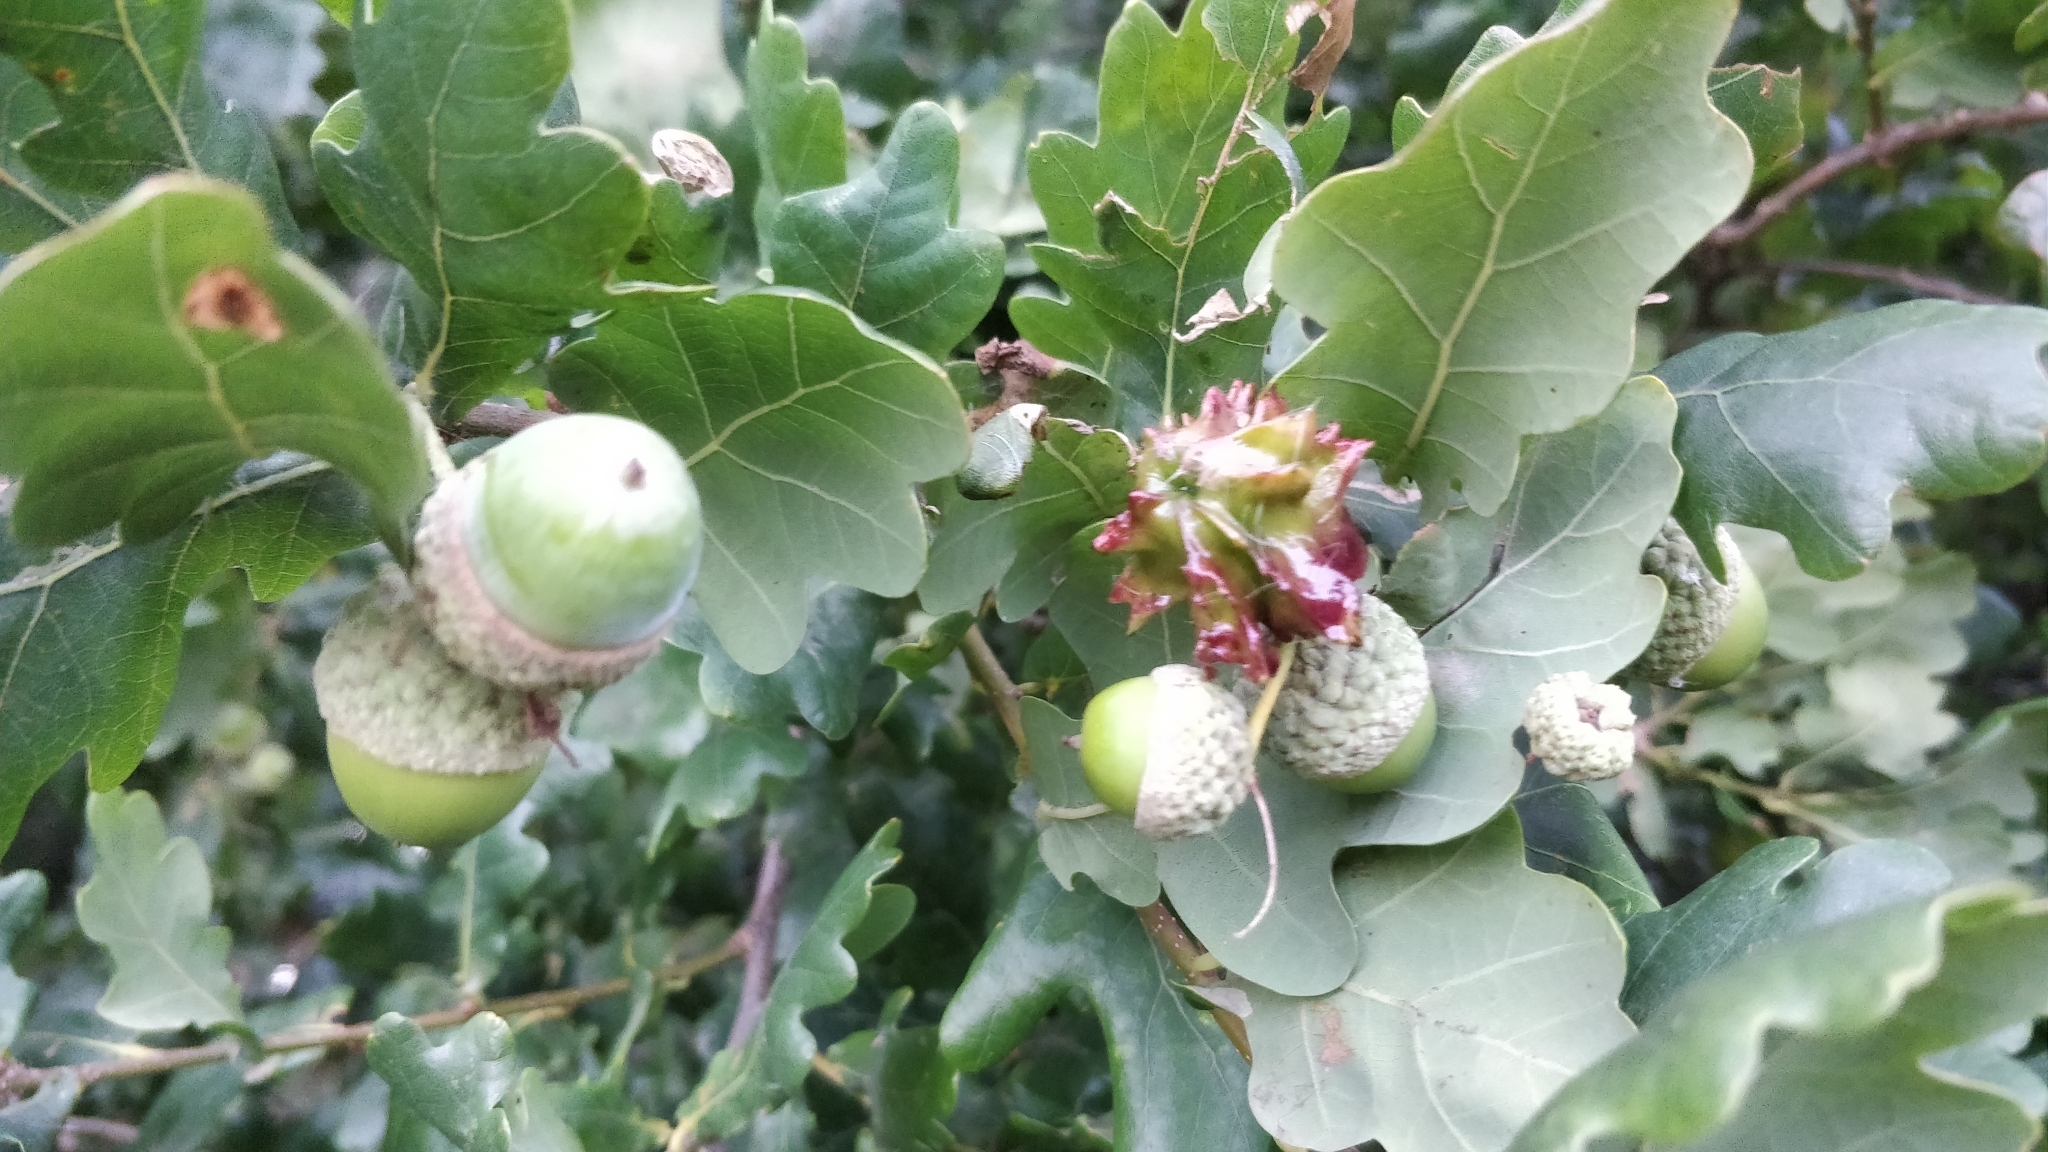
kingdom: Plantae
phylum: Tracheophyta
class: Magnoliopsida
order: Fagales
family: Fagaceae
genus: Quercus
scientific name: Quercus robur
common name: Pedunculate oak
